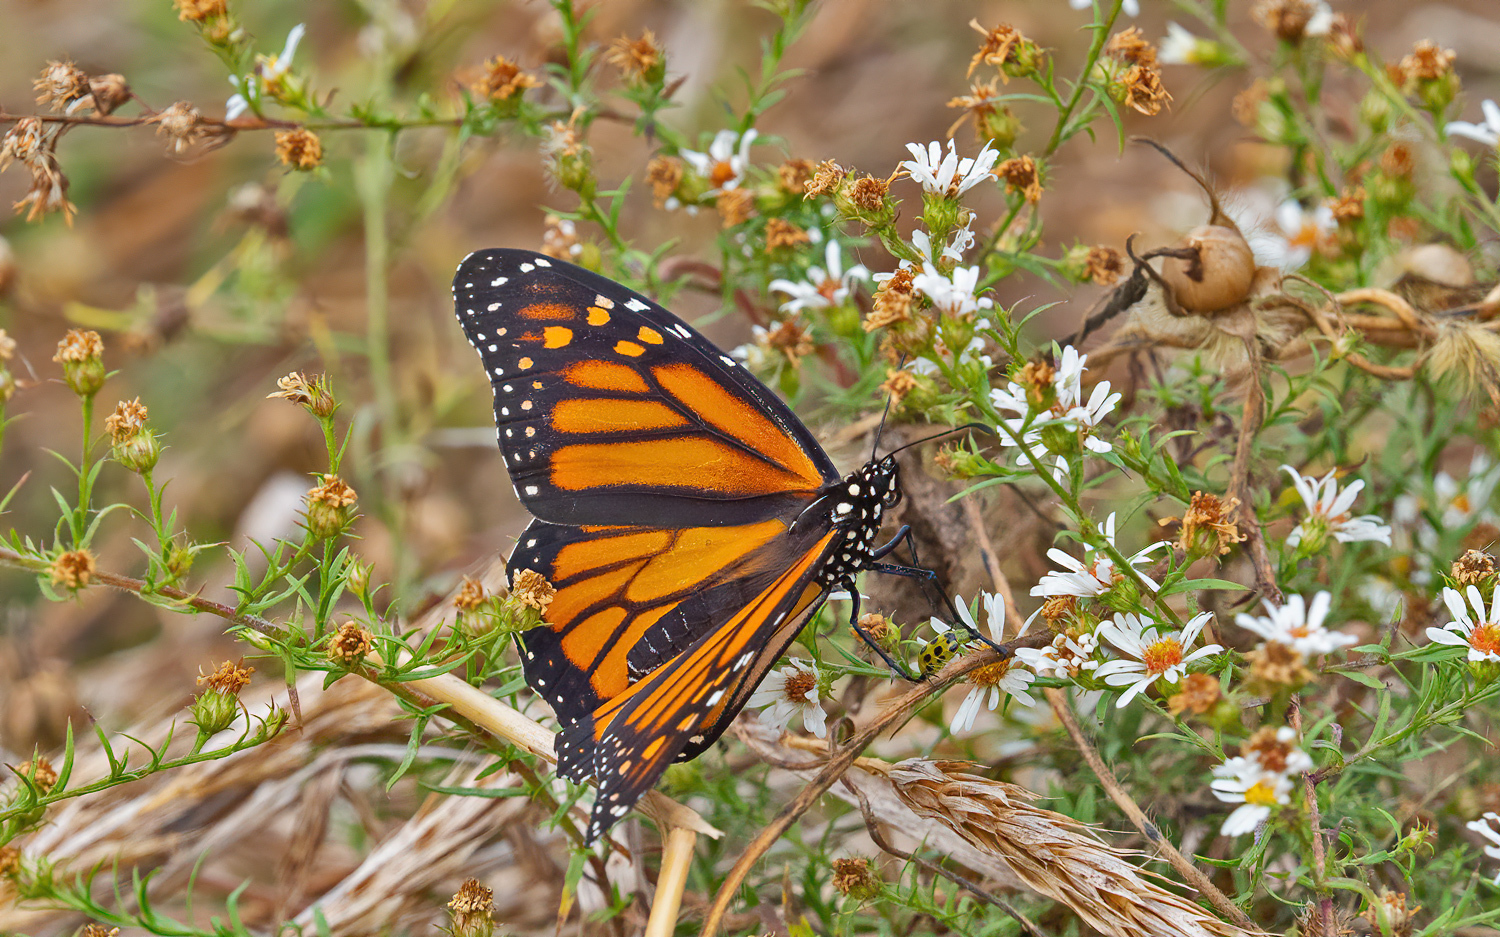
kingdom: Animalia
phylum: Arthropoda
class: Insecta
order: Lepidoptera
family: Nymphalidae
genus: Danaus
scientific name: Danaus plexippus
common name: Monarch
